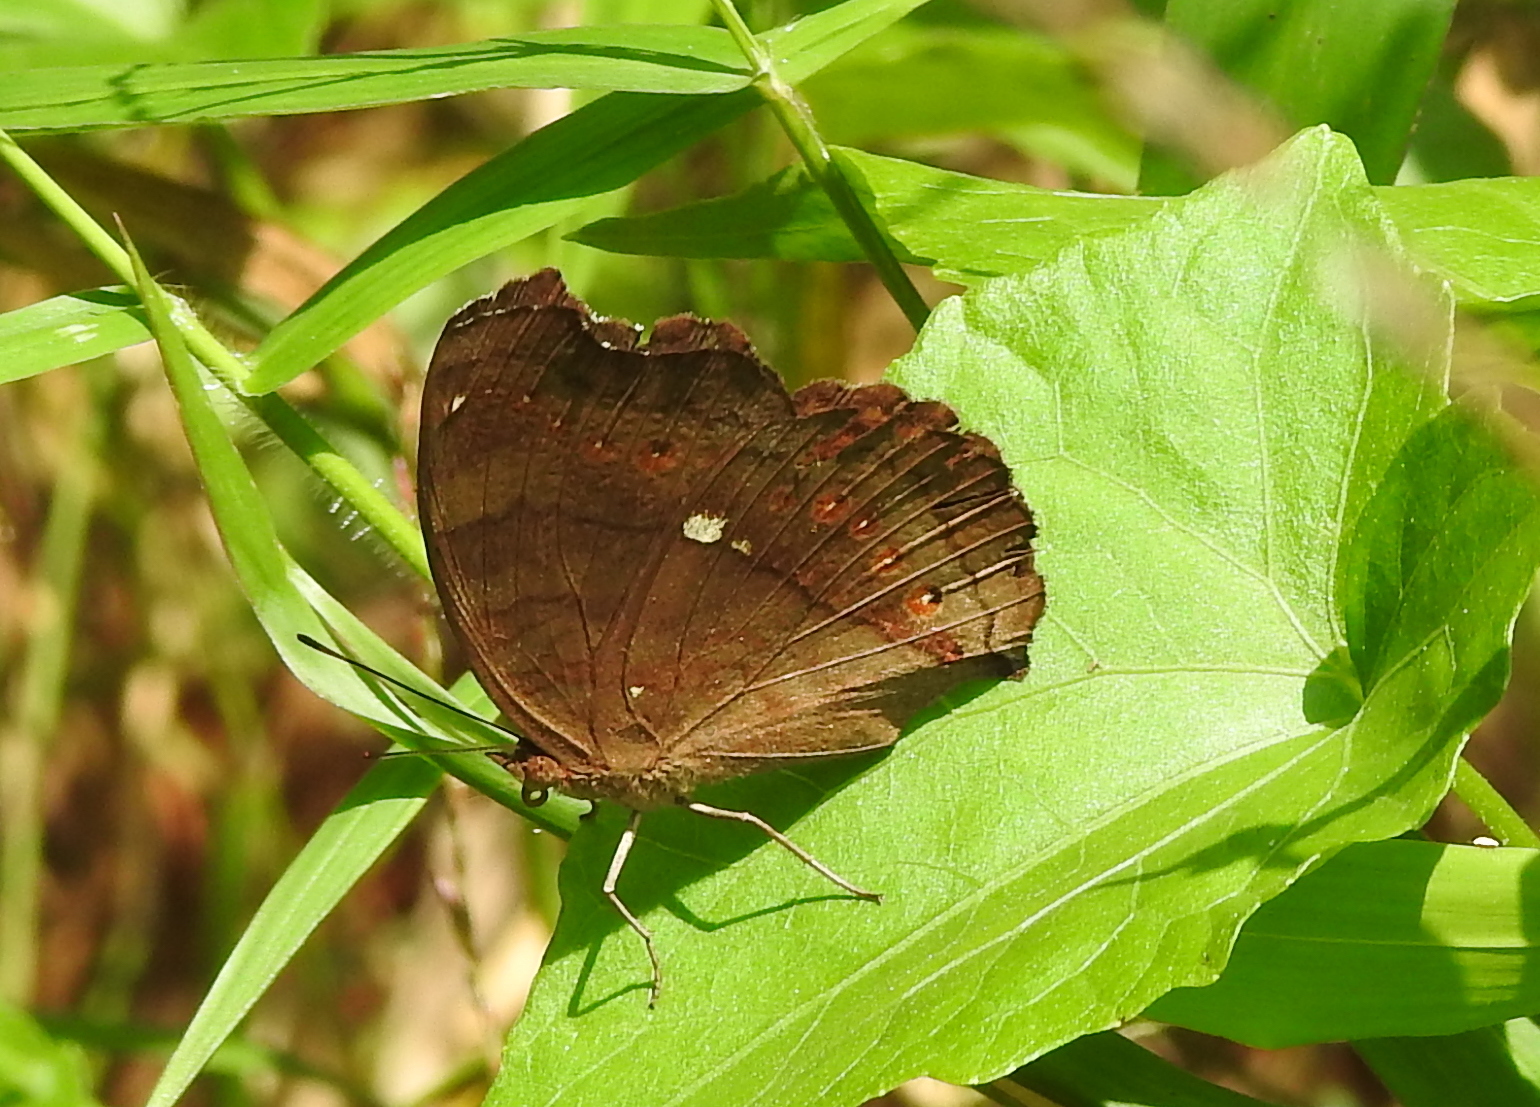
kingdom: Animalia
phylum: Arthropoda
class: Insecta
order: Lepidoptera
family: Nymphalidae
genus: Junonia
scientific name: Junonia hedonia
